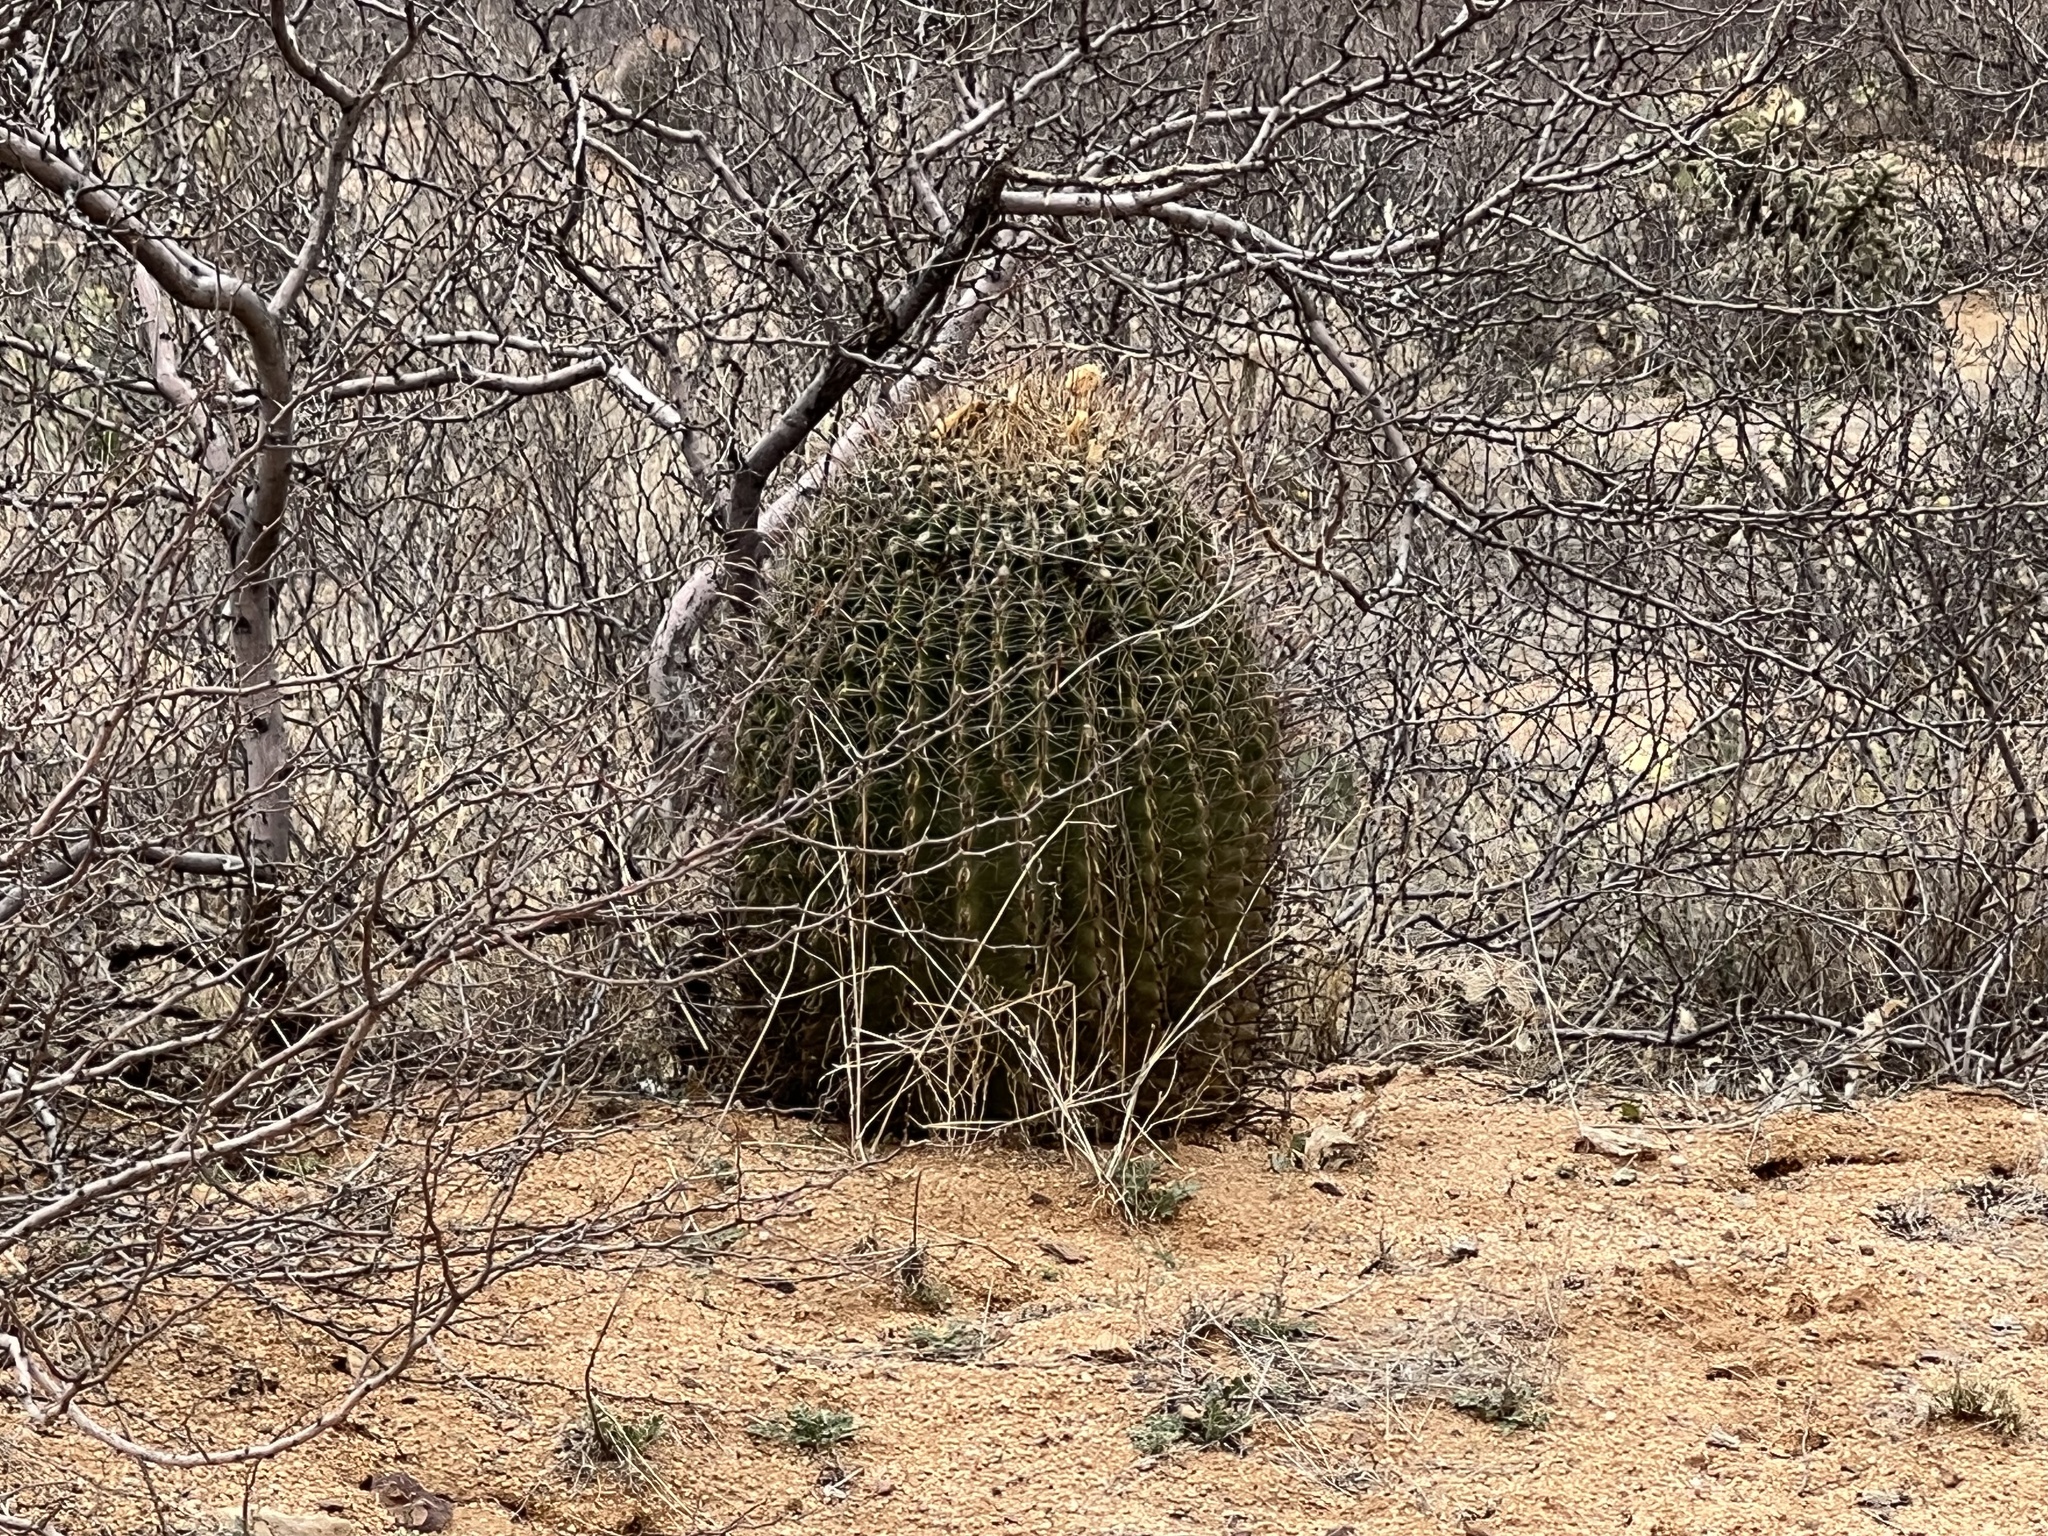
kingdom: Plantae
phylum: Tracheophyta
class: Magnoliopsida
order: Caryophyllales
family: Cactaceae
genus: Ferocactus
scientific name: Ferocactus wislizeni
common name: Candy barrel cactus
